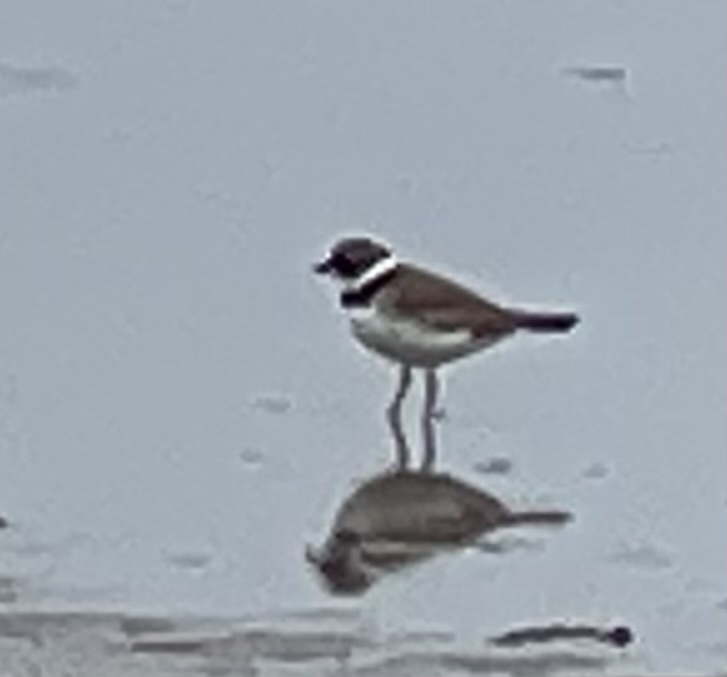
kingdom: Animalia
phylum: Chordata
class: Aves
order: Charadriiformes
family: Charadriidae
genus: Charadrius
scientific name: Charadrius semipalmatus
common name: Semipalmated plover
